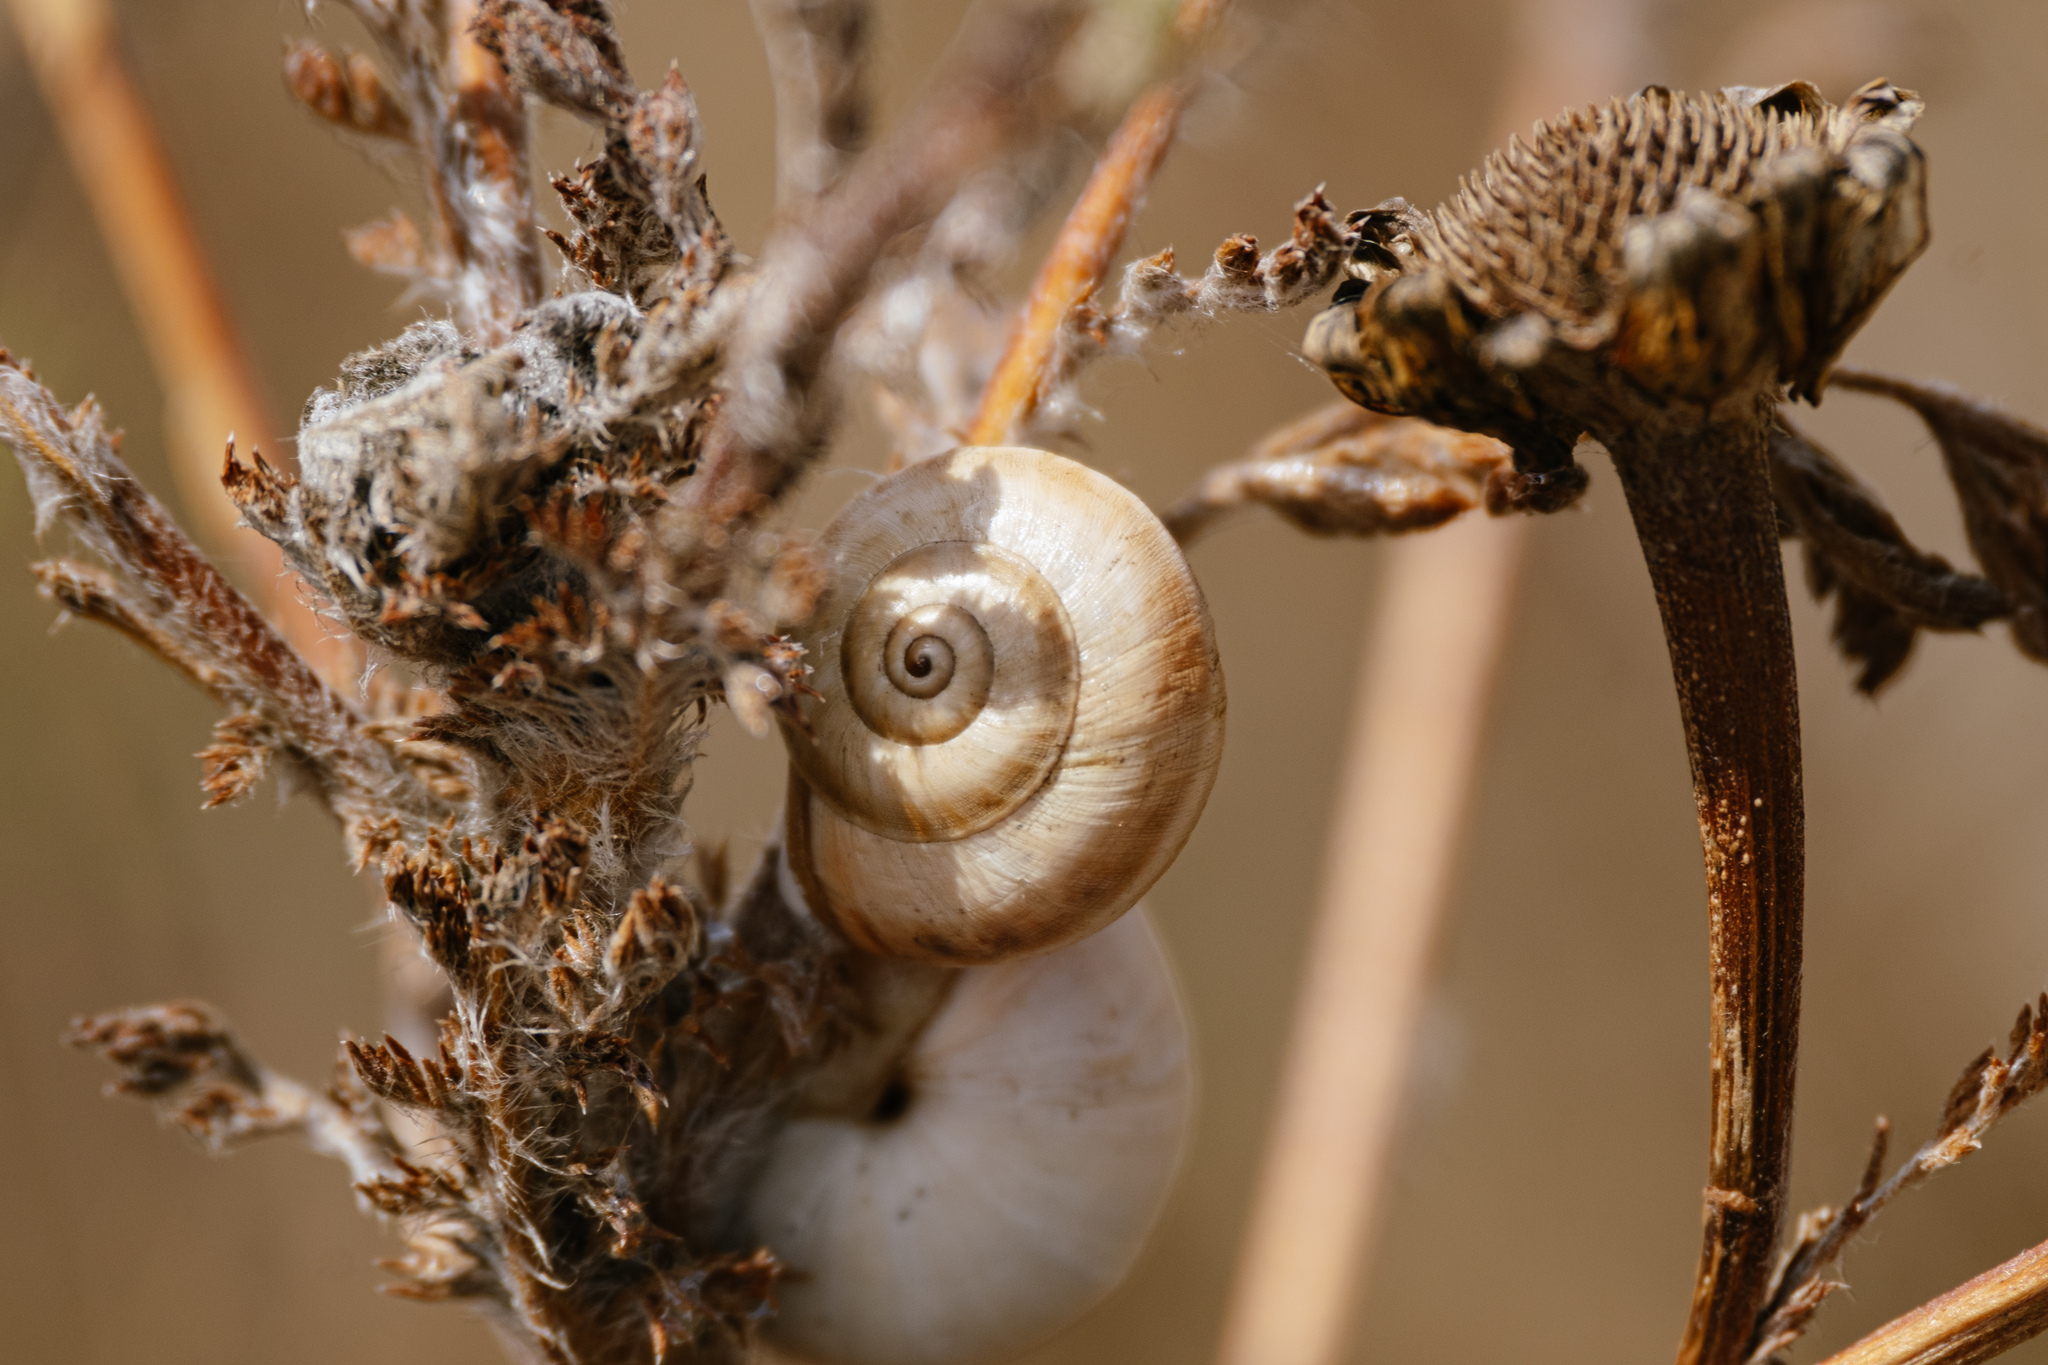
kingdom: Animalia
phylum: Mollusca
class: Gastropoda
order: Stylommatophora
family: Helicidae
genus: Theba
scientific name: Theba pisana
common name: White snail
